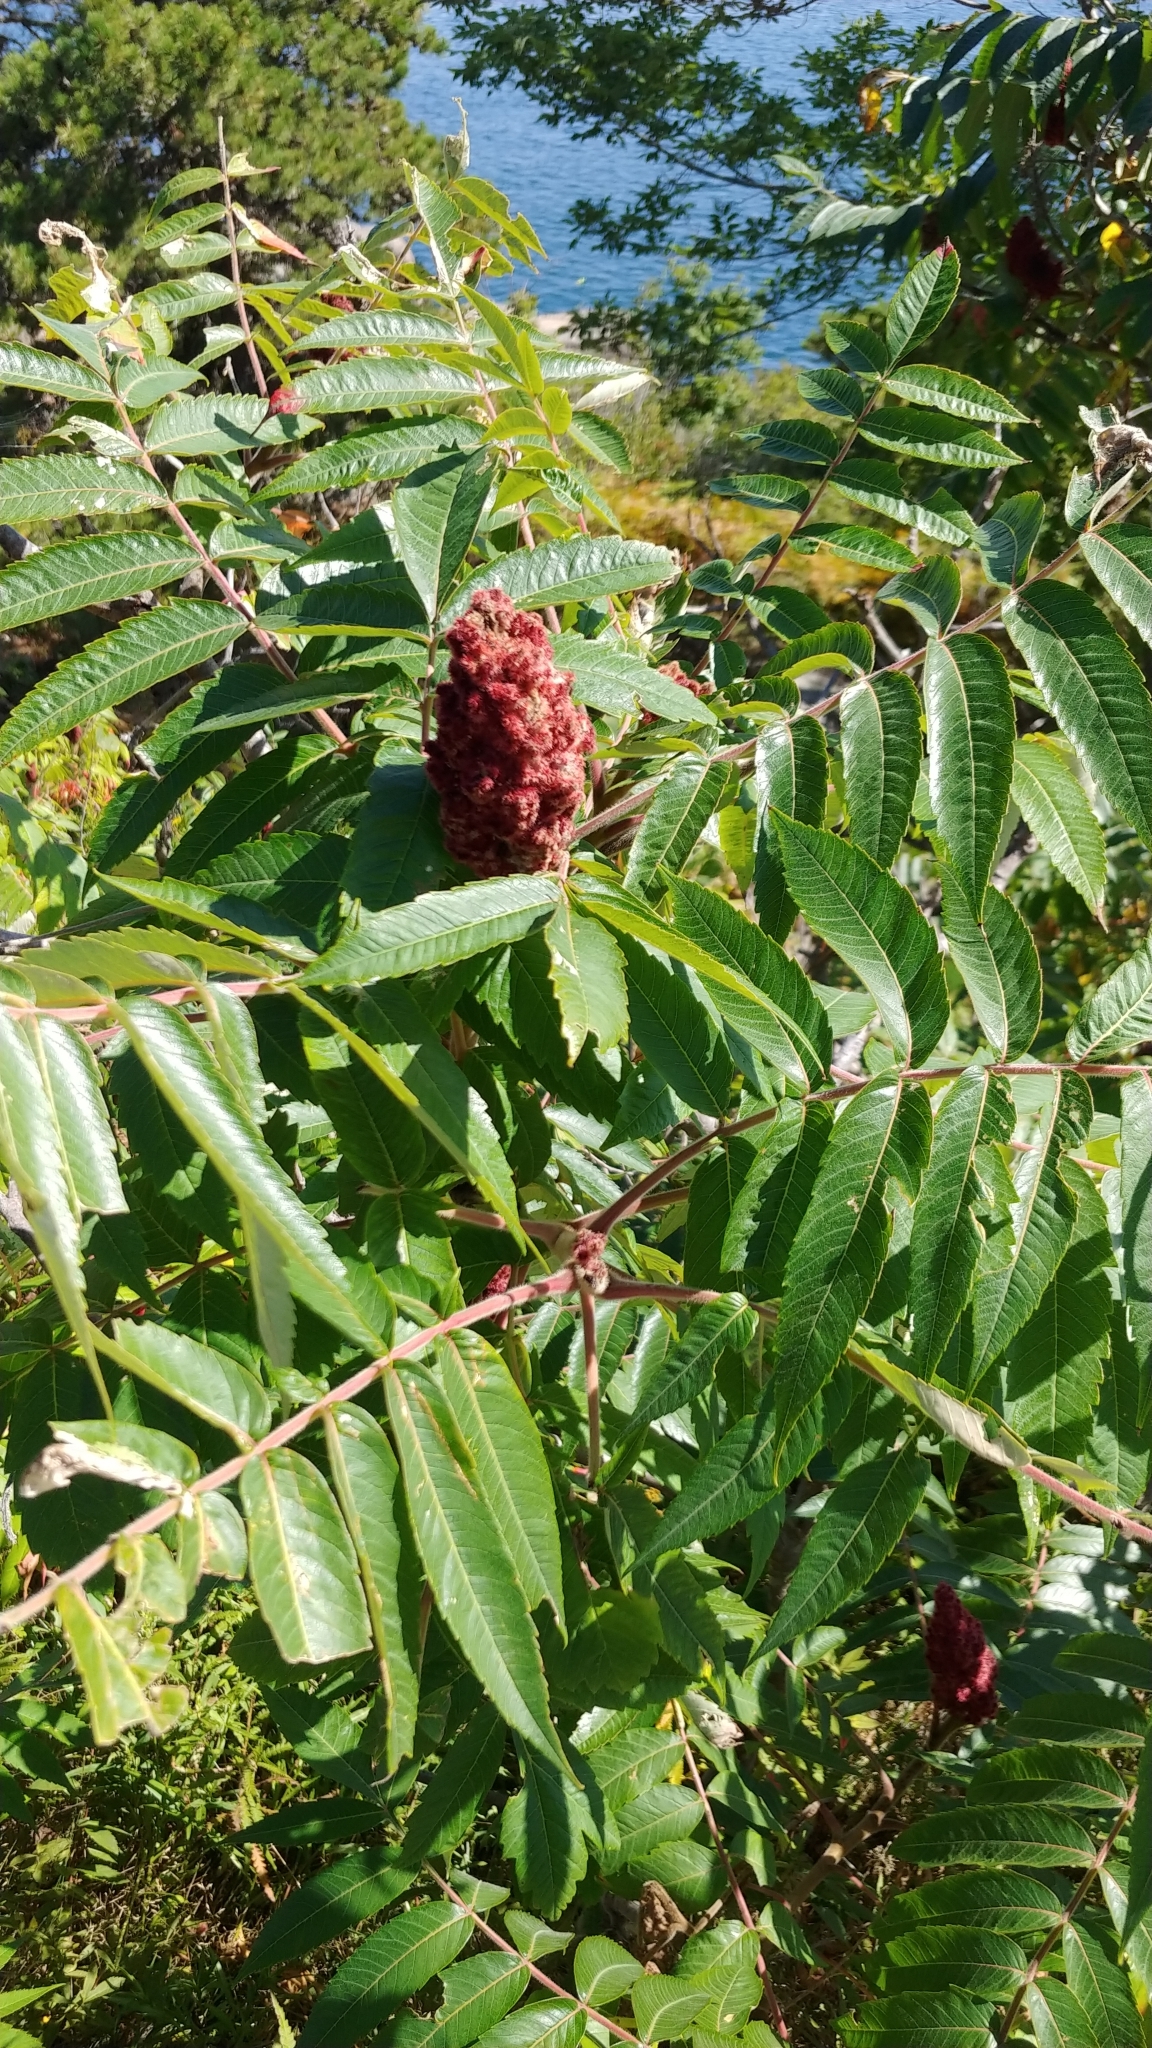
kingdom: Plantae
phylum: Tracheophyta
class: Magnoliopsida
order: Sapindales
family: Anacardiaceae
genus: Rhus
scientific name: Rhus typhina
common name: Staghorn sumac
